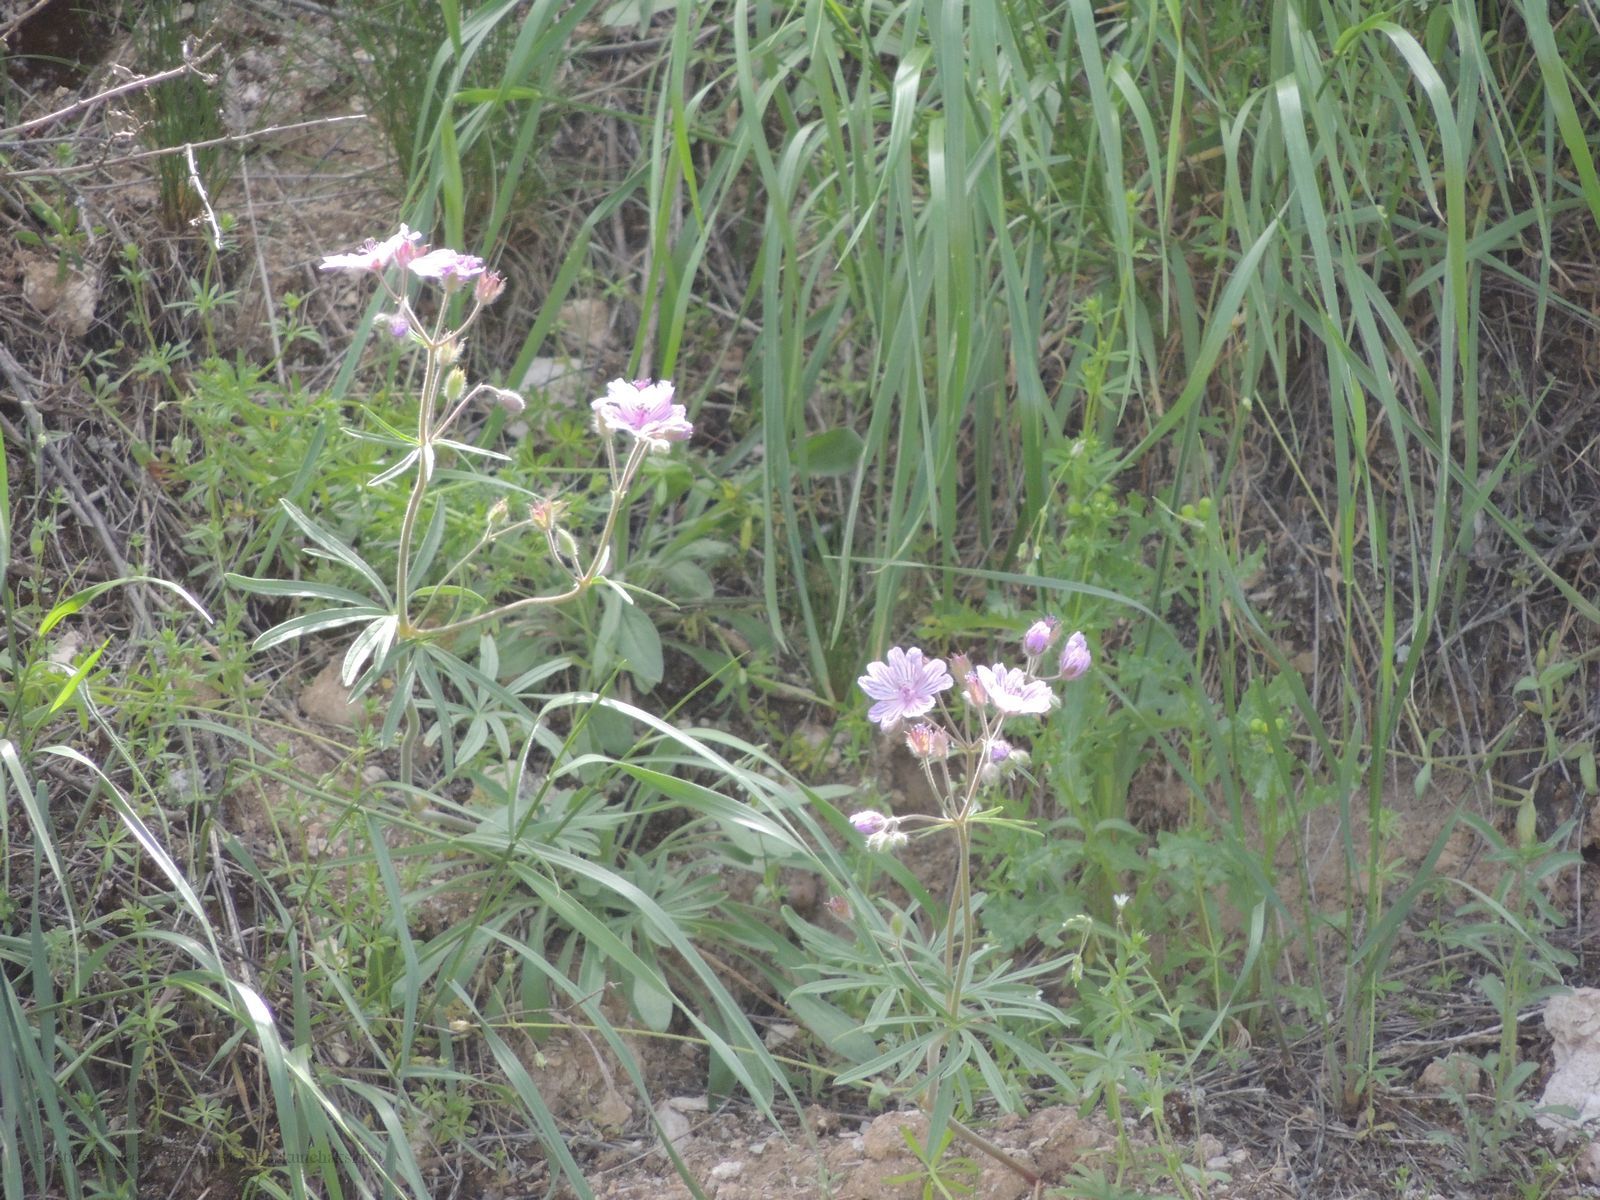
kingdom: Plantae
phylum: Tracheophyta
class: Magnoliopsida
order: Geraniales
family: Geraniaceae
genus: Geranium
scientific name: Geranium linearilobum
